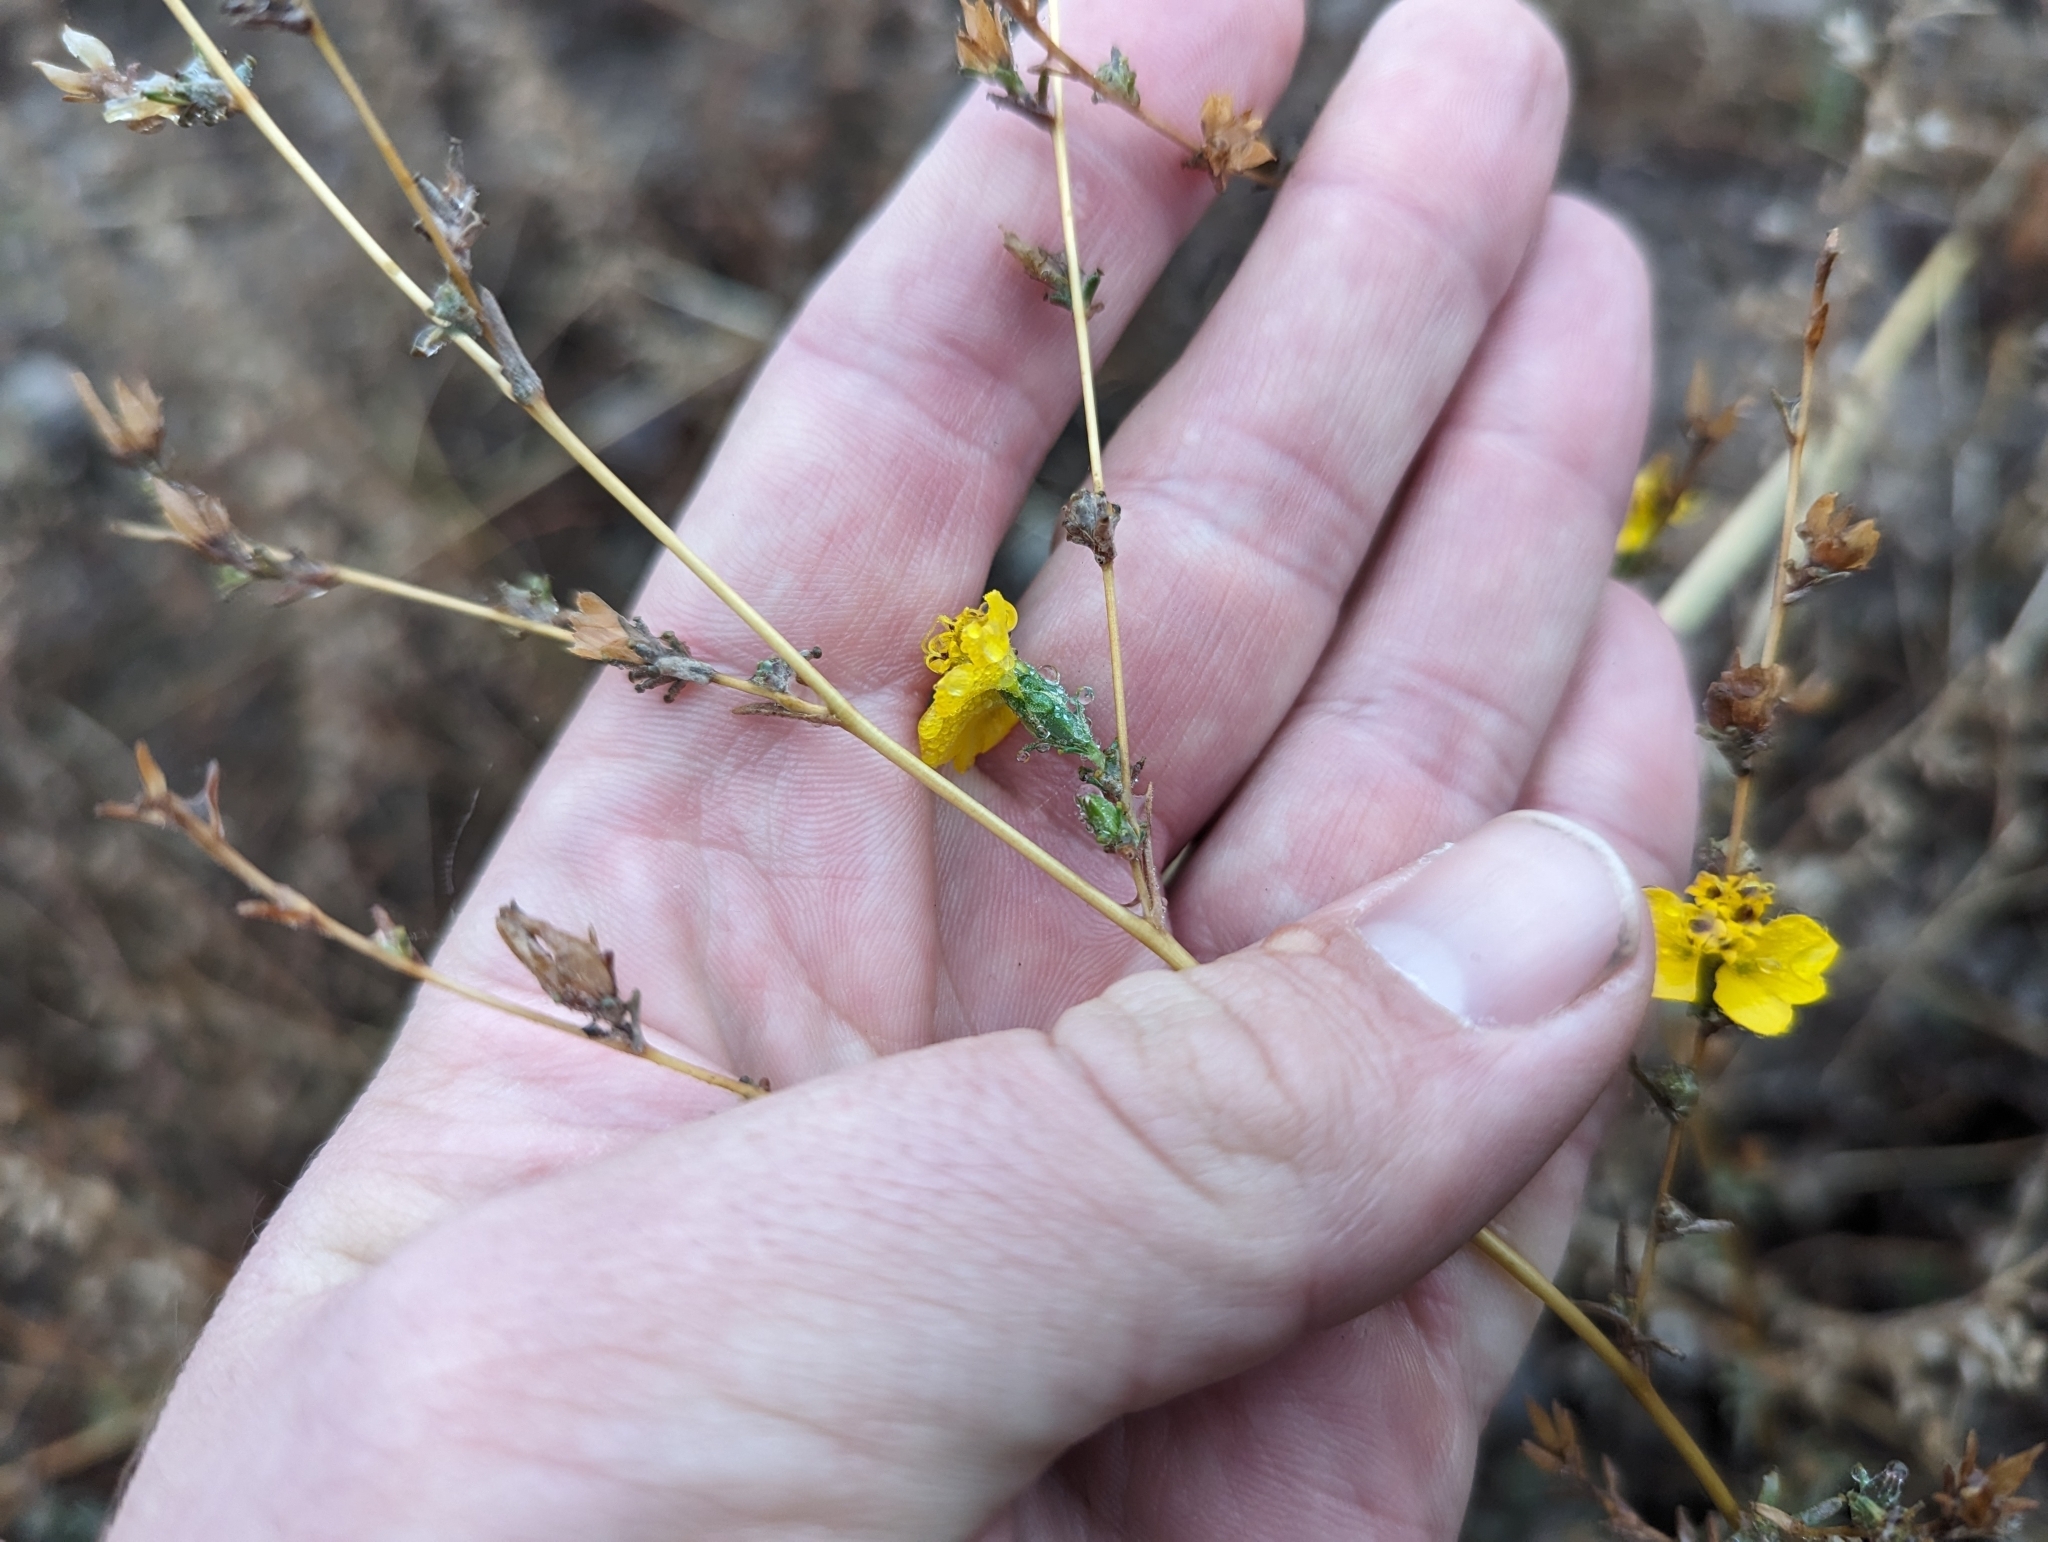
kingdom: Plantae
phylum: Tracheophyta
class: Magnoliopsida
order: Asterales
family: Asteraceae
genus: Centromadia
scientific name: Centromadia fitchii
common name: Fitch's spikeweed
